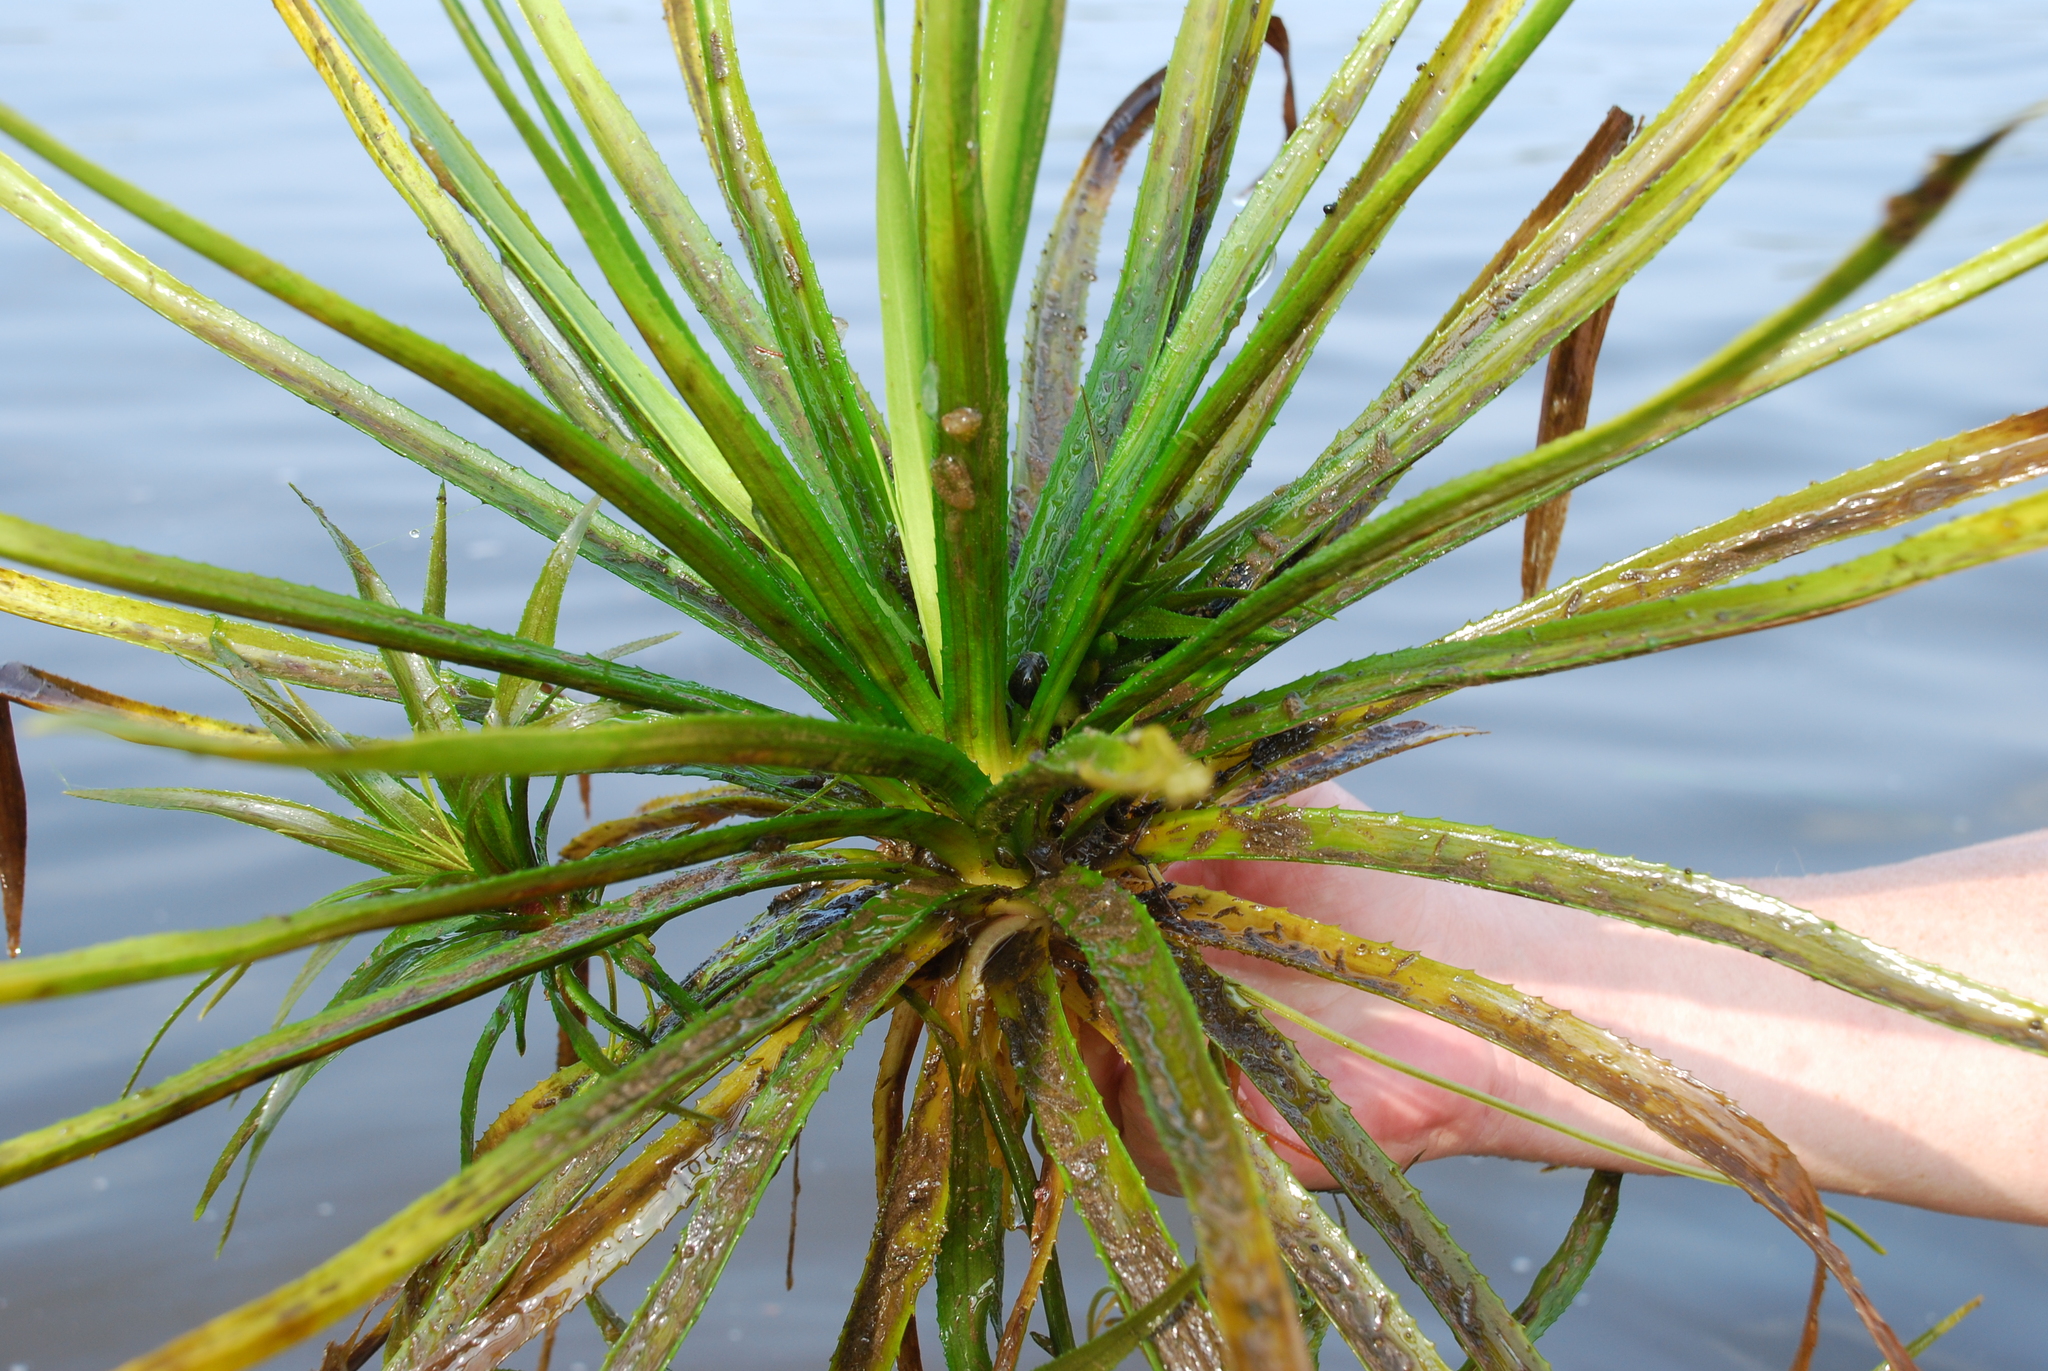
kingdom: Plantae
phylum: Tracheophyta
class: Liliopsida
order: Alismatales
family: Hydrocharitaceae
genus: Stratiotes
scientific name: Stratiotes aloides
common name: Water-soldier
